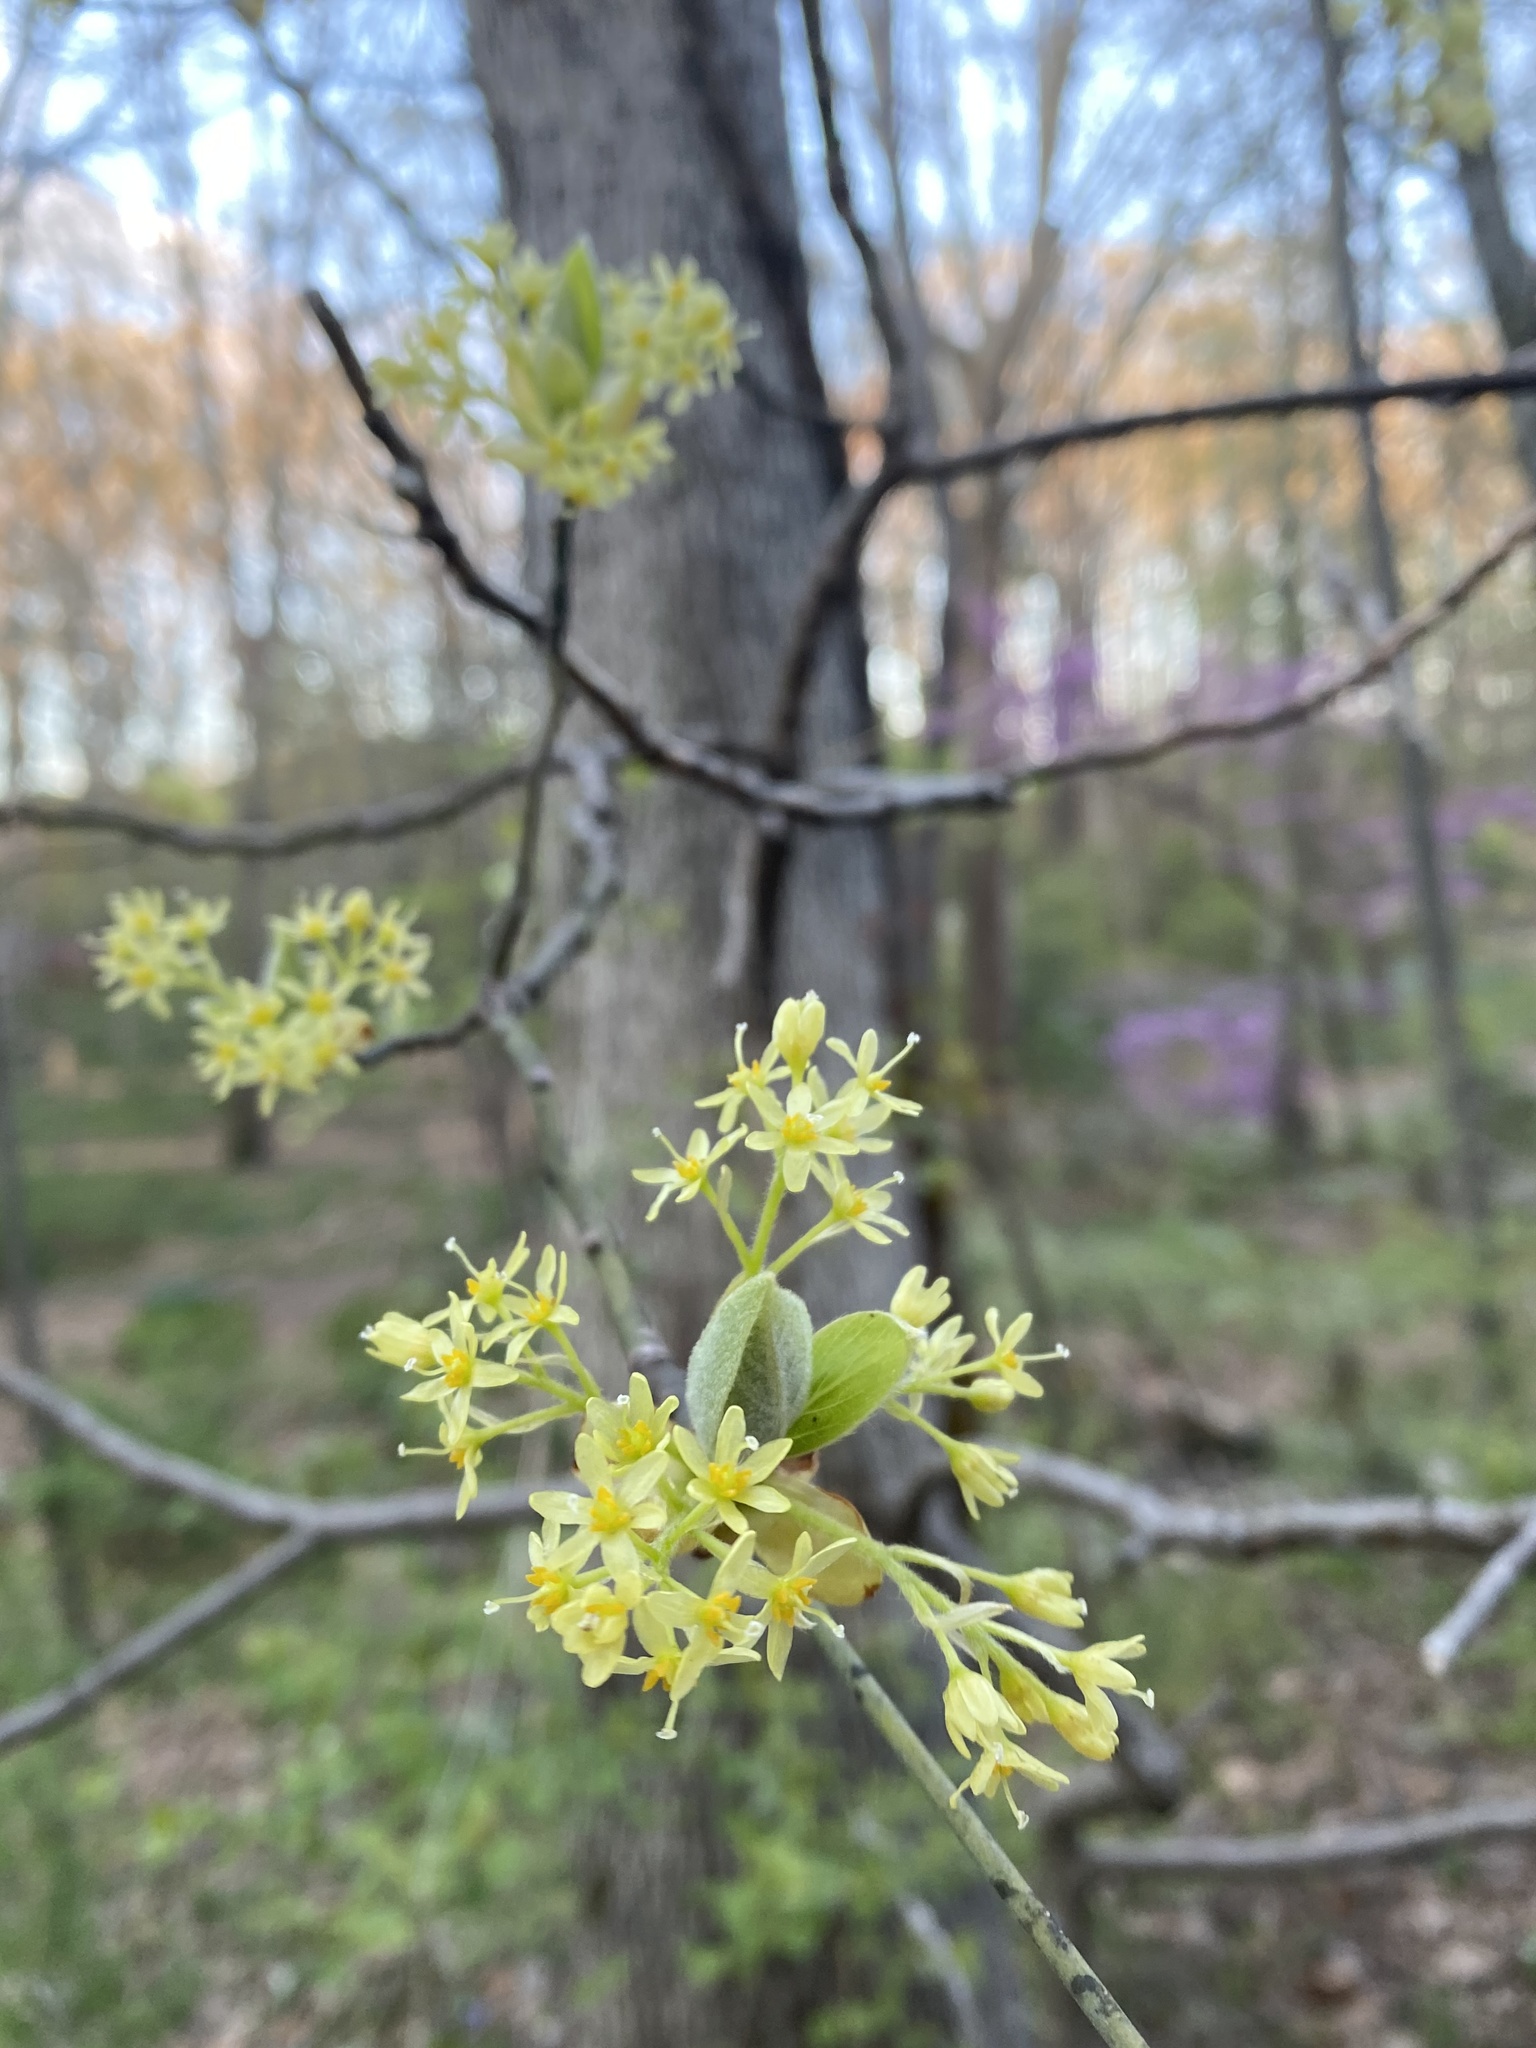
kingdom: Plantae
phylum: Tracheophyta
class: Magnoliopsida
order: Laurales
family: Lauraceae
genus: Sassafras
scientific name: Sassafras albidum
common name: Sassafras
